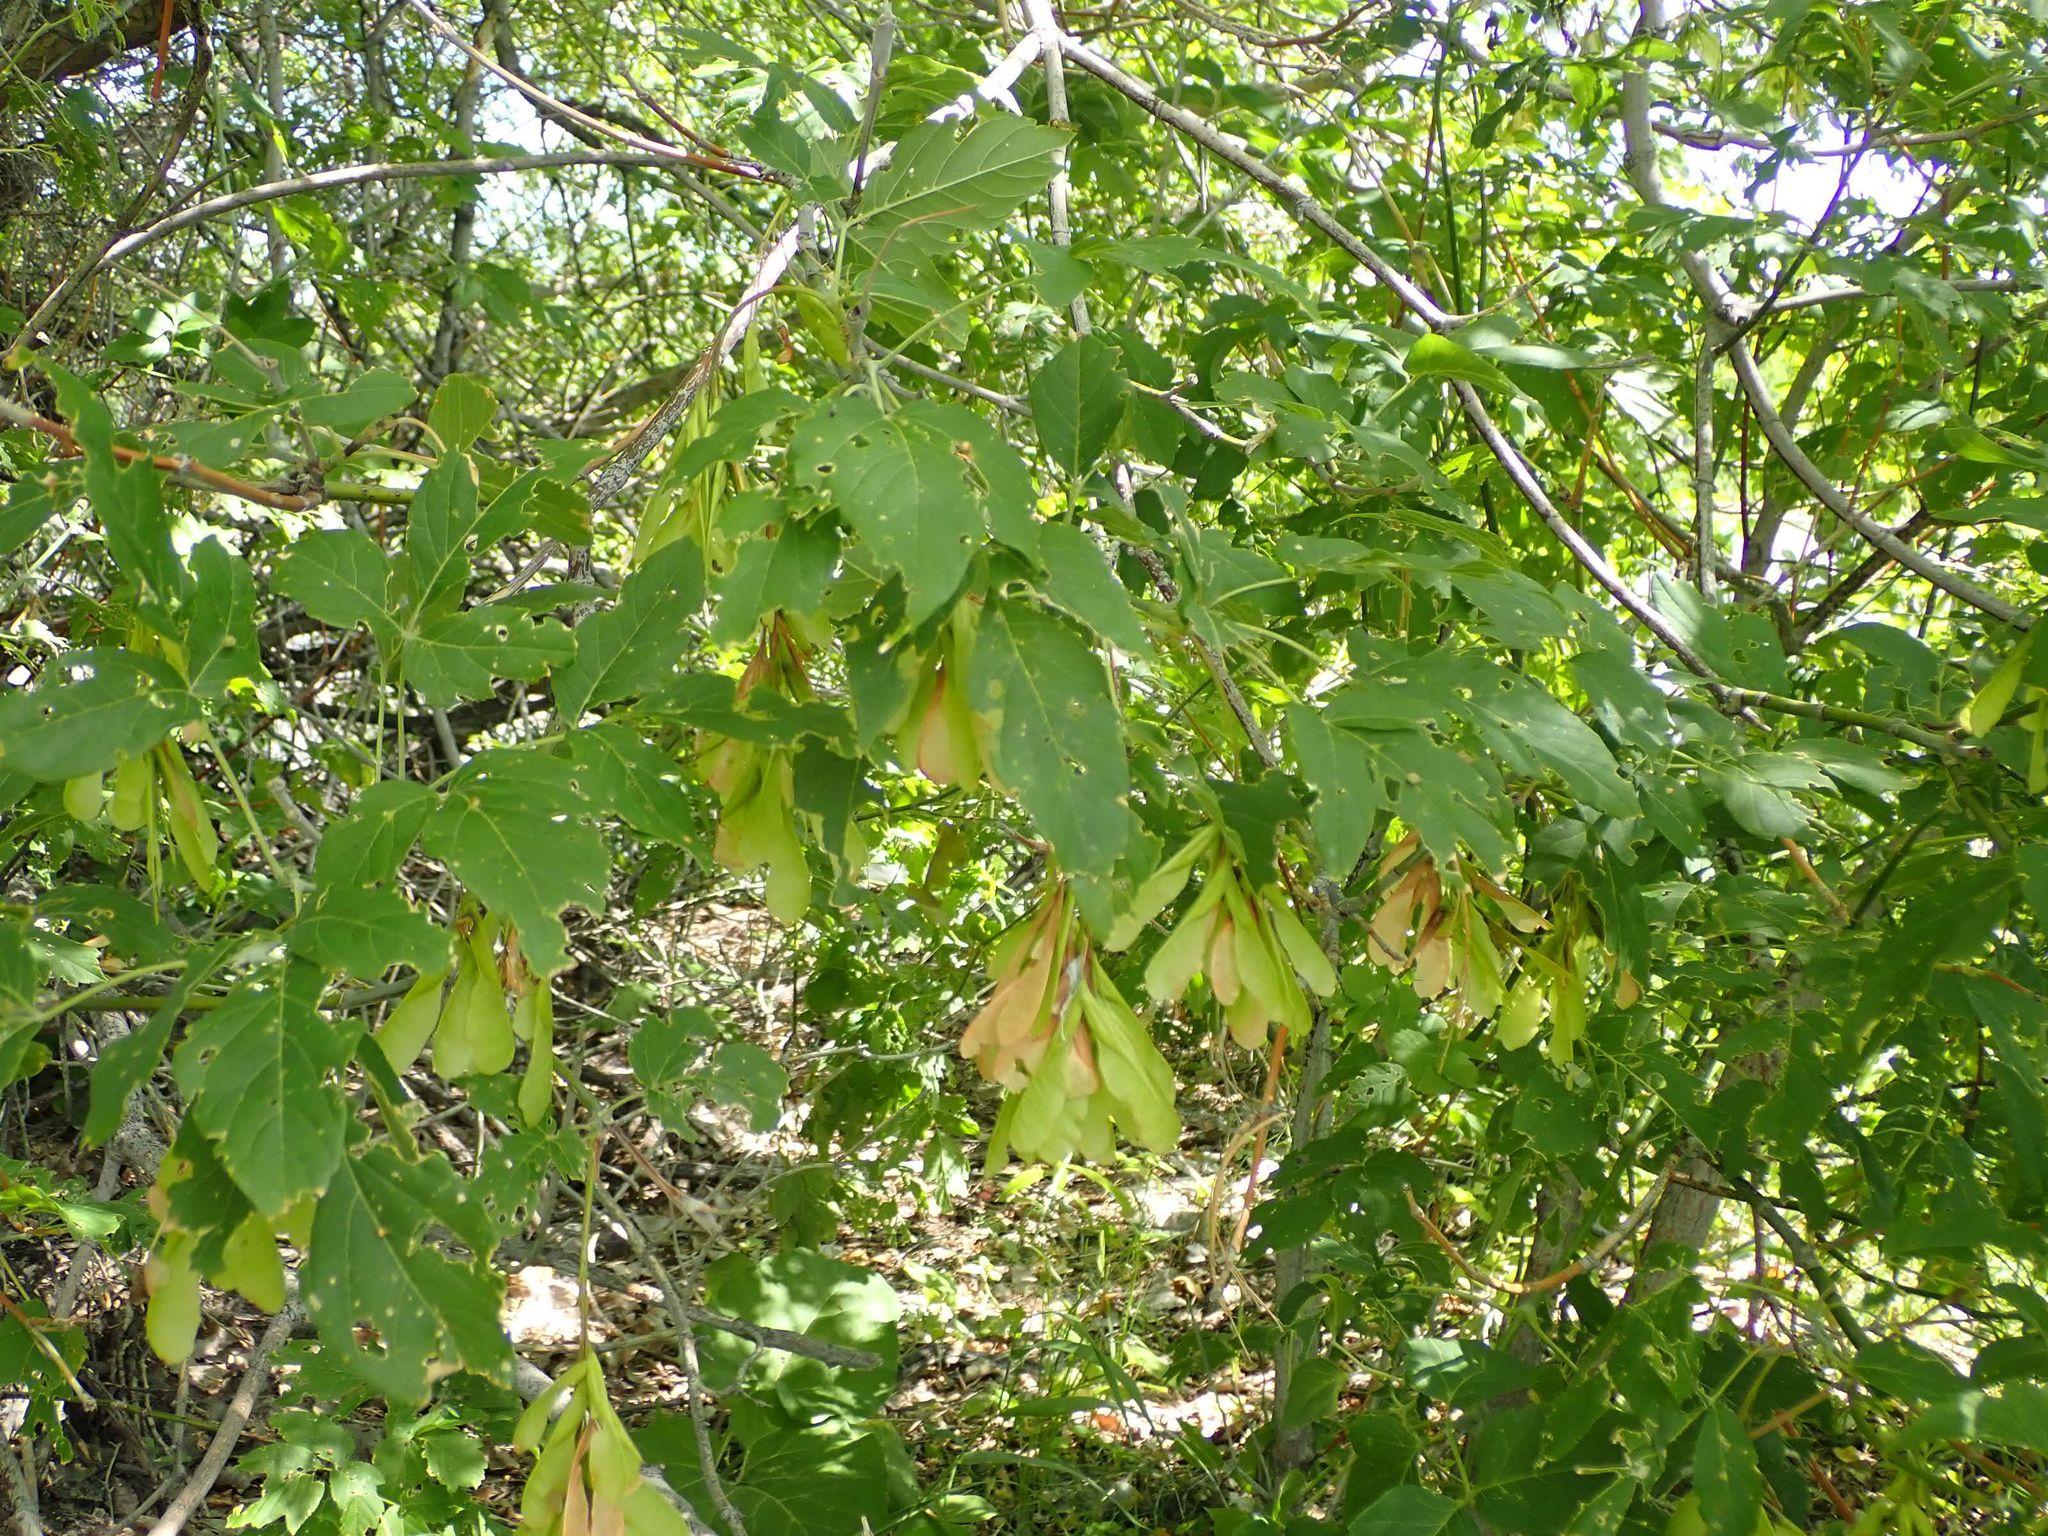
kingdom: Plantae
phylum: Tracheophyta
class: Magnoliopsida
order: Sapindales
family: Sapindaceae
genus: Acer
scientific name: Acer negundo
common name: Ashleaf maple
